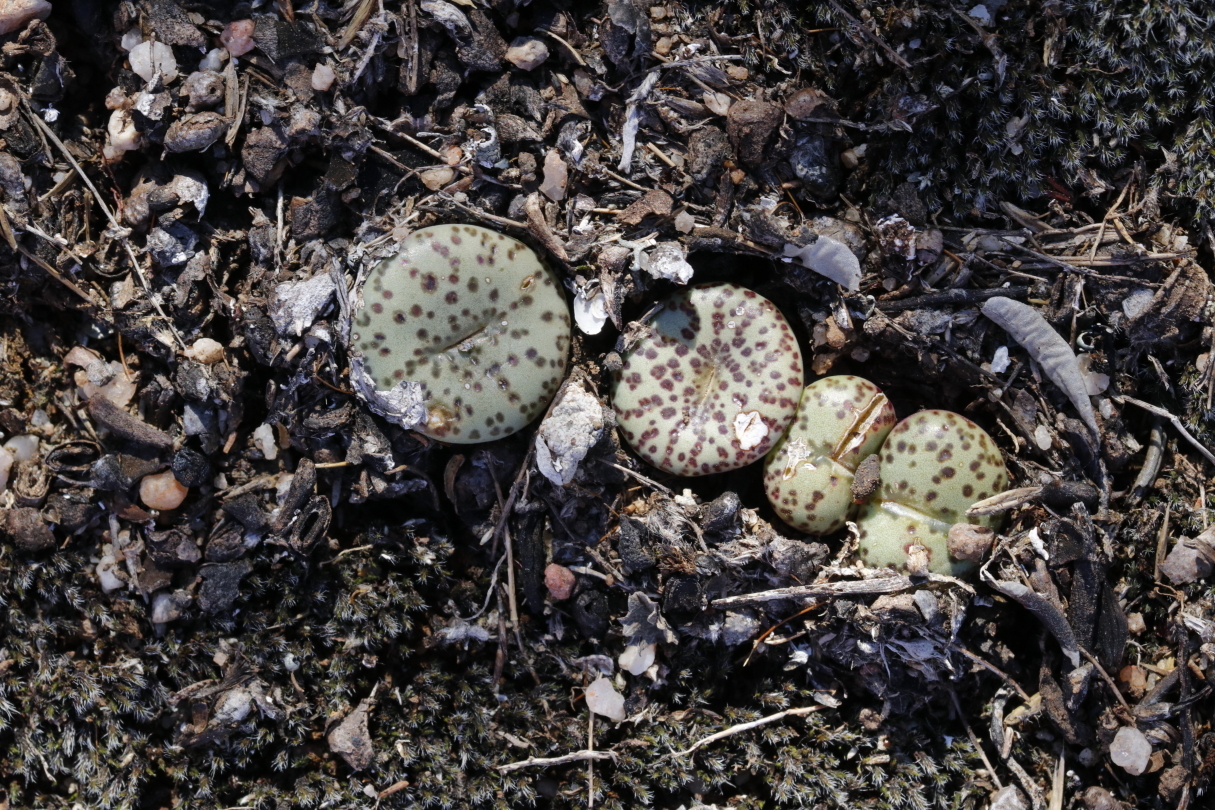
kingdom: Plantae
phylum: Tracheophyta
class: Magnoliopsida
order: Caryophyllales
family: Aizoaceae
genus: Conophytum
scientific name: Conophytum obcordellum
